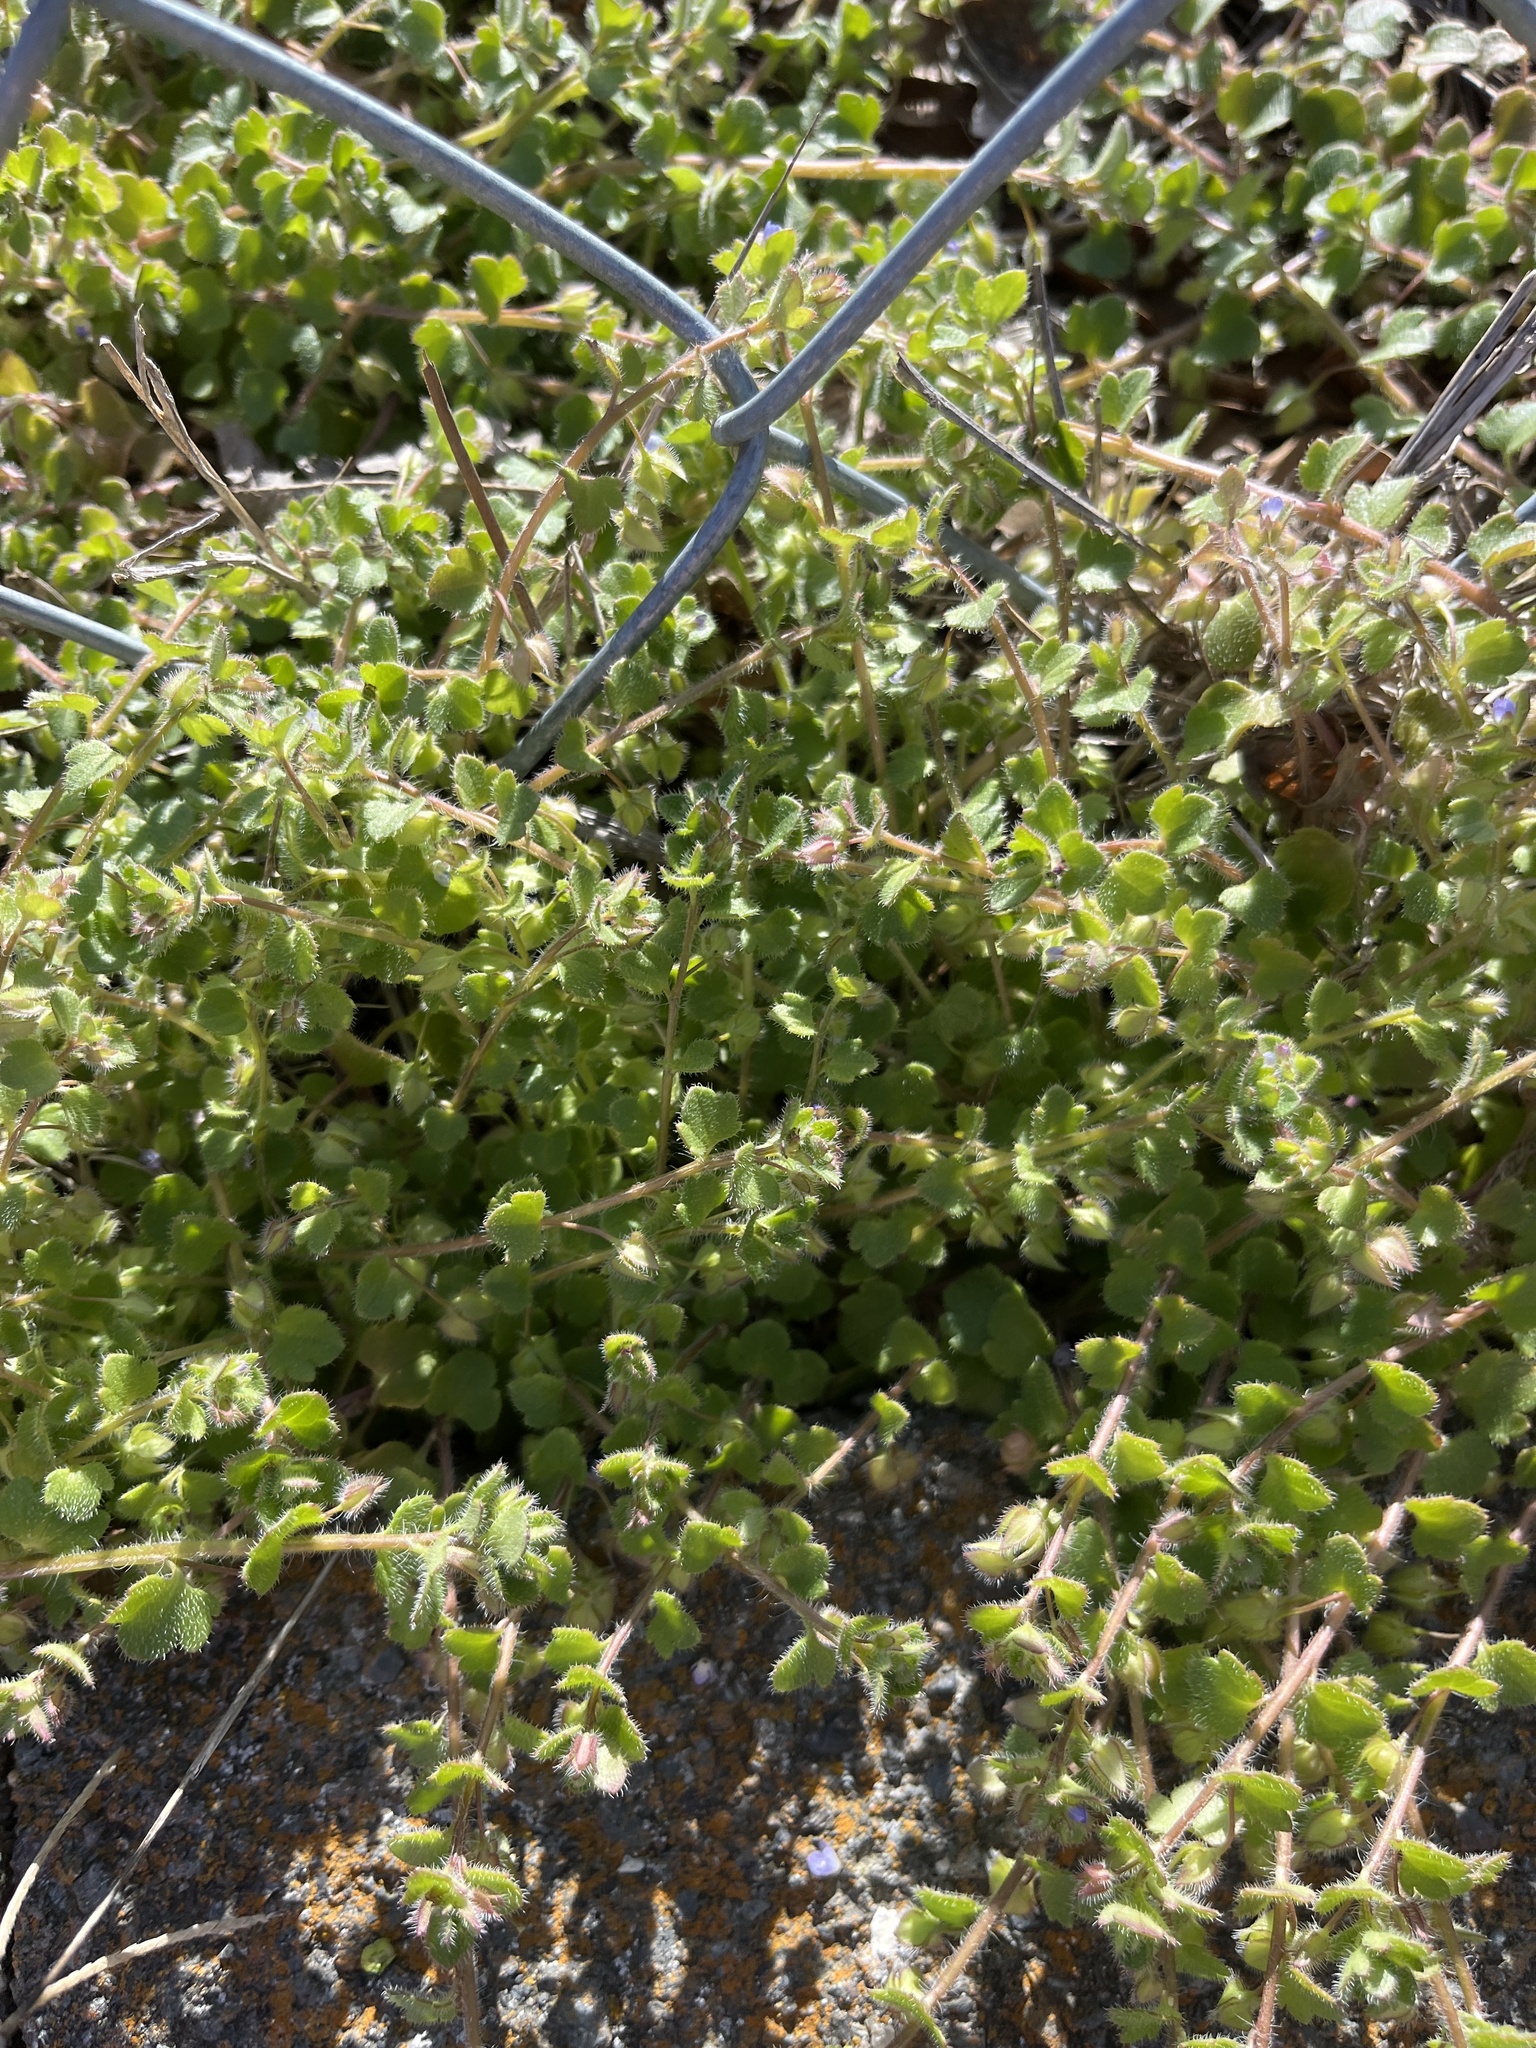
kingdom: Plantae
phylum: Tracheophyta
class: Magnoliopsida
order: Lamiales
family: Plantaginaceae
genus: Veronica
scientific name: Veronica hederifolia
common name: Ivy-leaved speedwell
